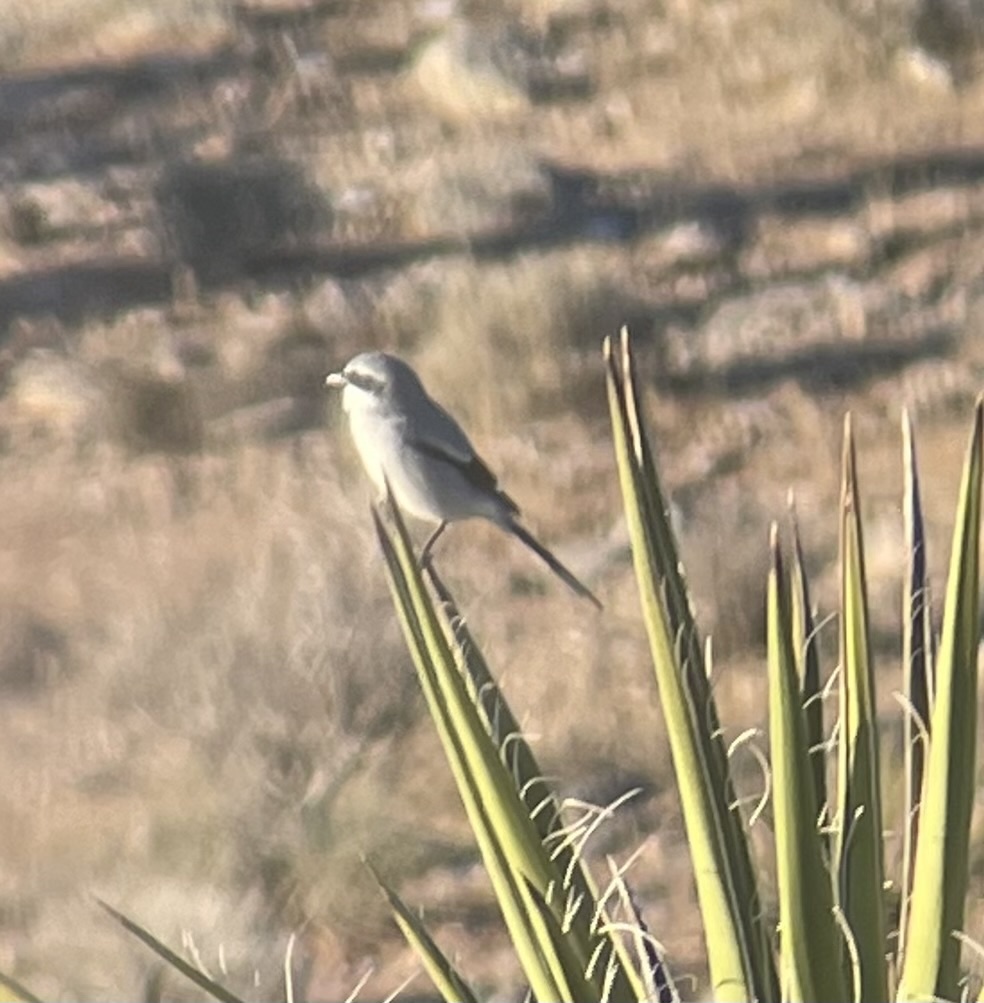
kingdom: Animalia
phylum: Chordata
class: Aves
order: Passeriformes
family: Laniidae
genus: Lanius
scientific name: Lanius ludovicianus
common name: Loggerhead shrike
